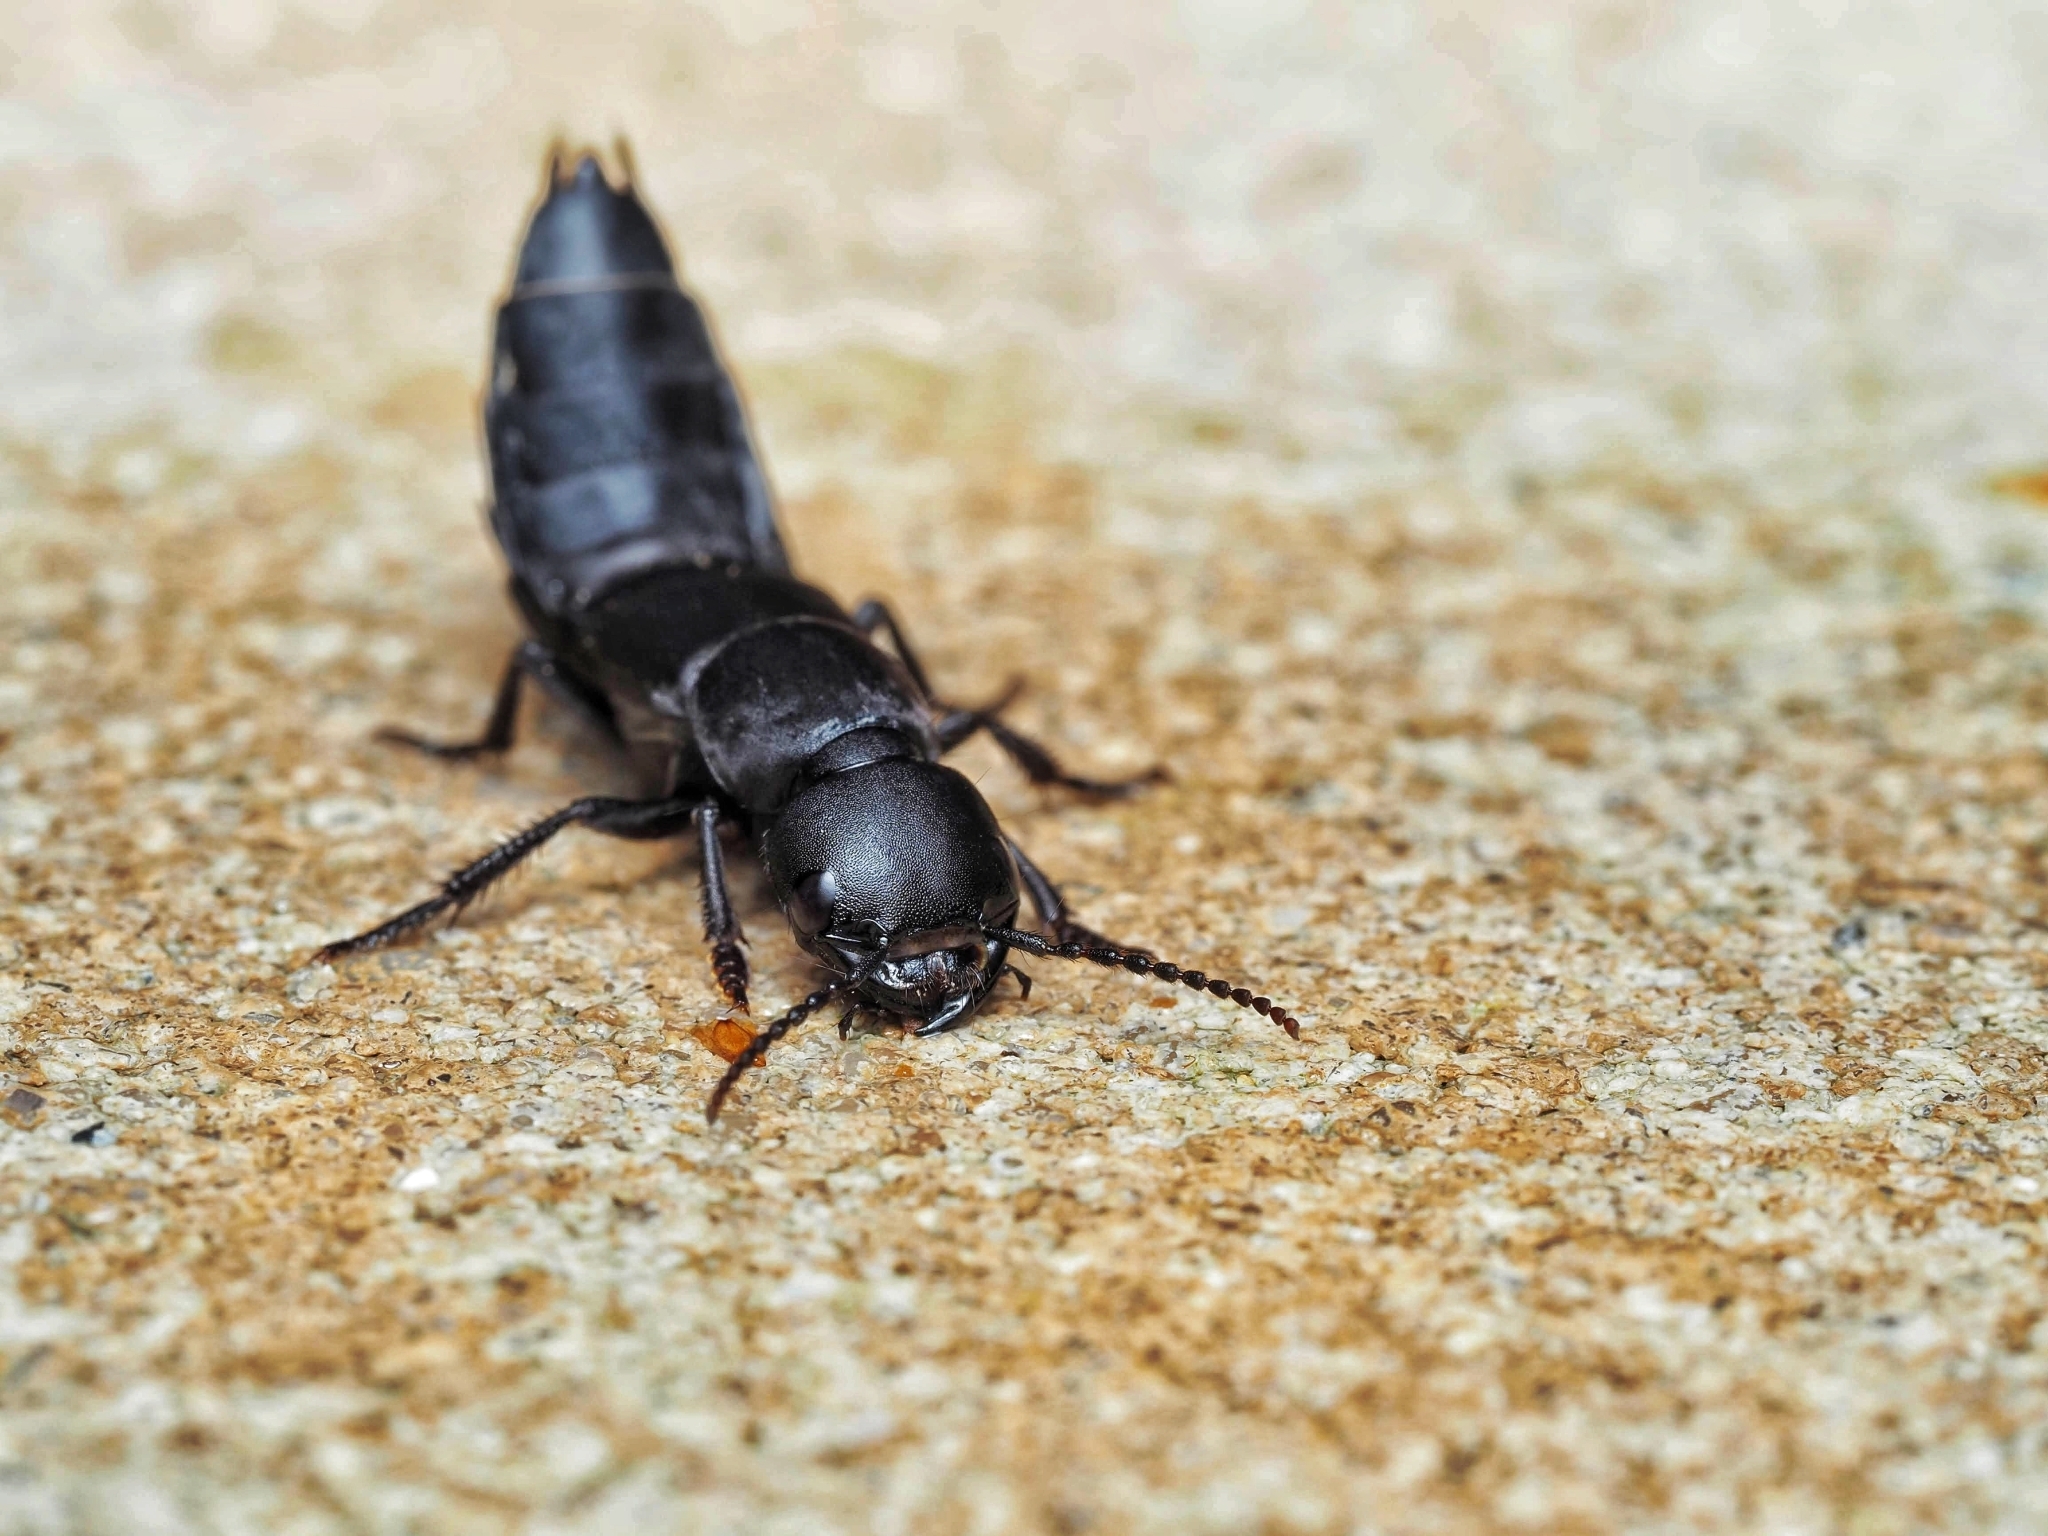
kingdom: Animalia
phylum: Arthropoda
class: Insecta
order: Coleoptera
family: Staphylinidae
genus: Ocypus
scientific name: Ocypus olens
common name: Devil's coach-horse
